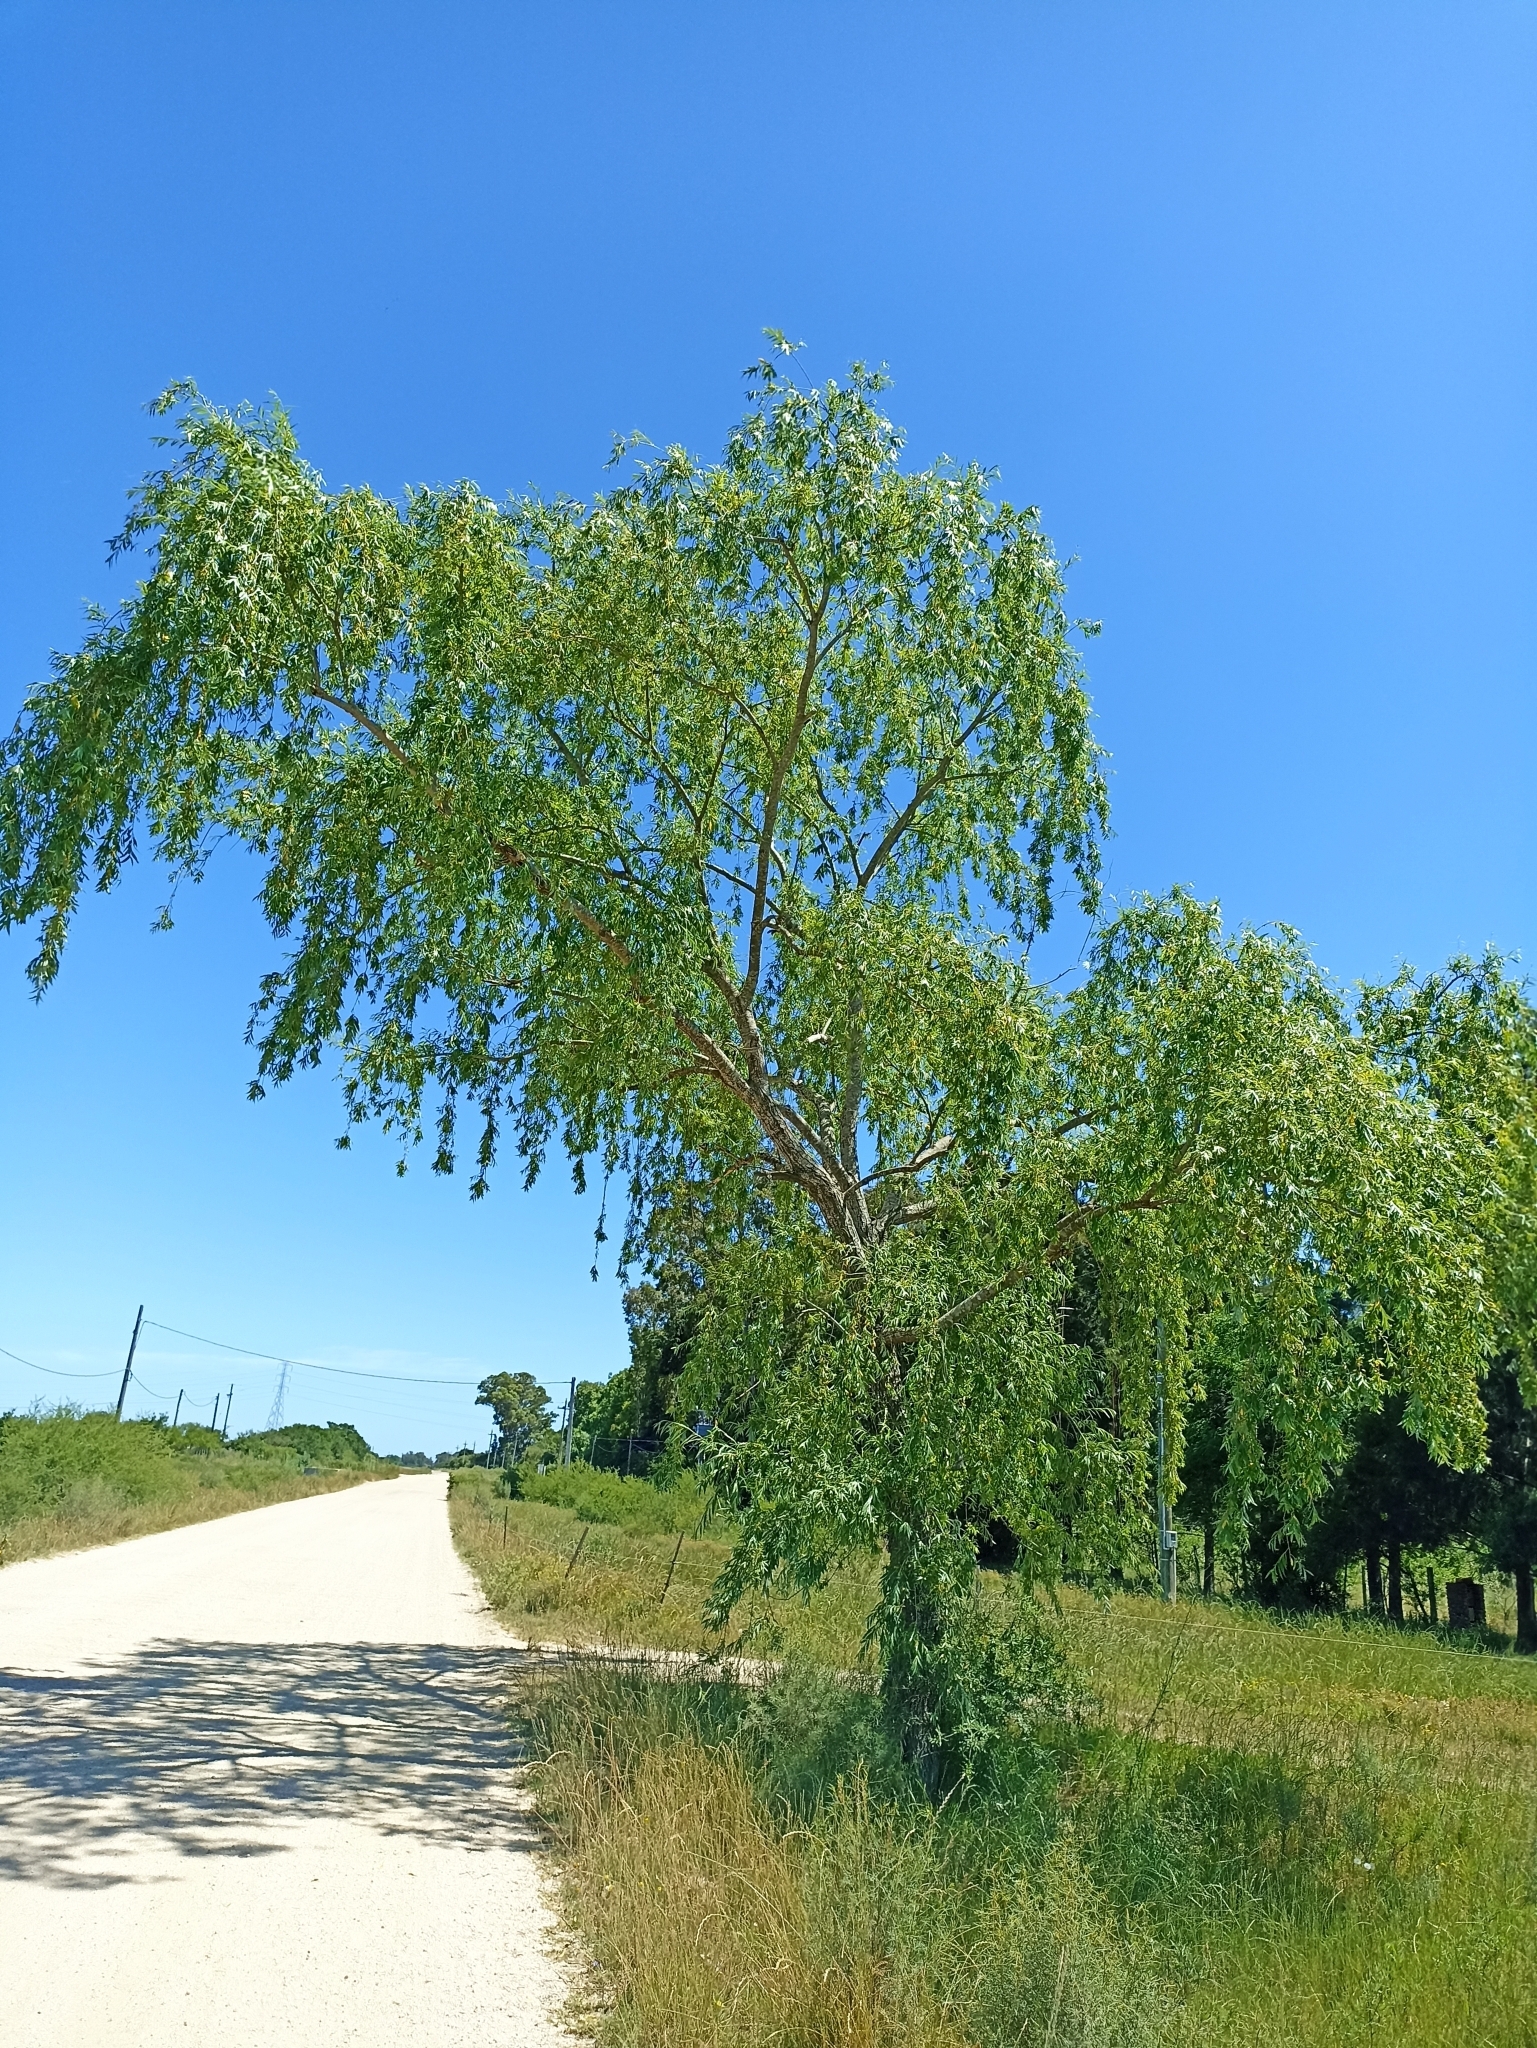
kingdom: Plantae
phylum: Tracheophyta
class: Magnoliopsida
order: Malpighiales
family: Salicaceae
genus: Salix
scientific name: Salix fragilis
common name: Crack willow
